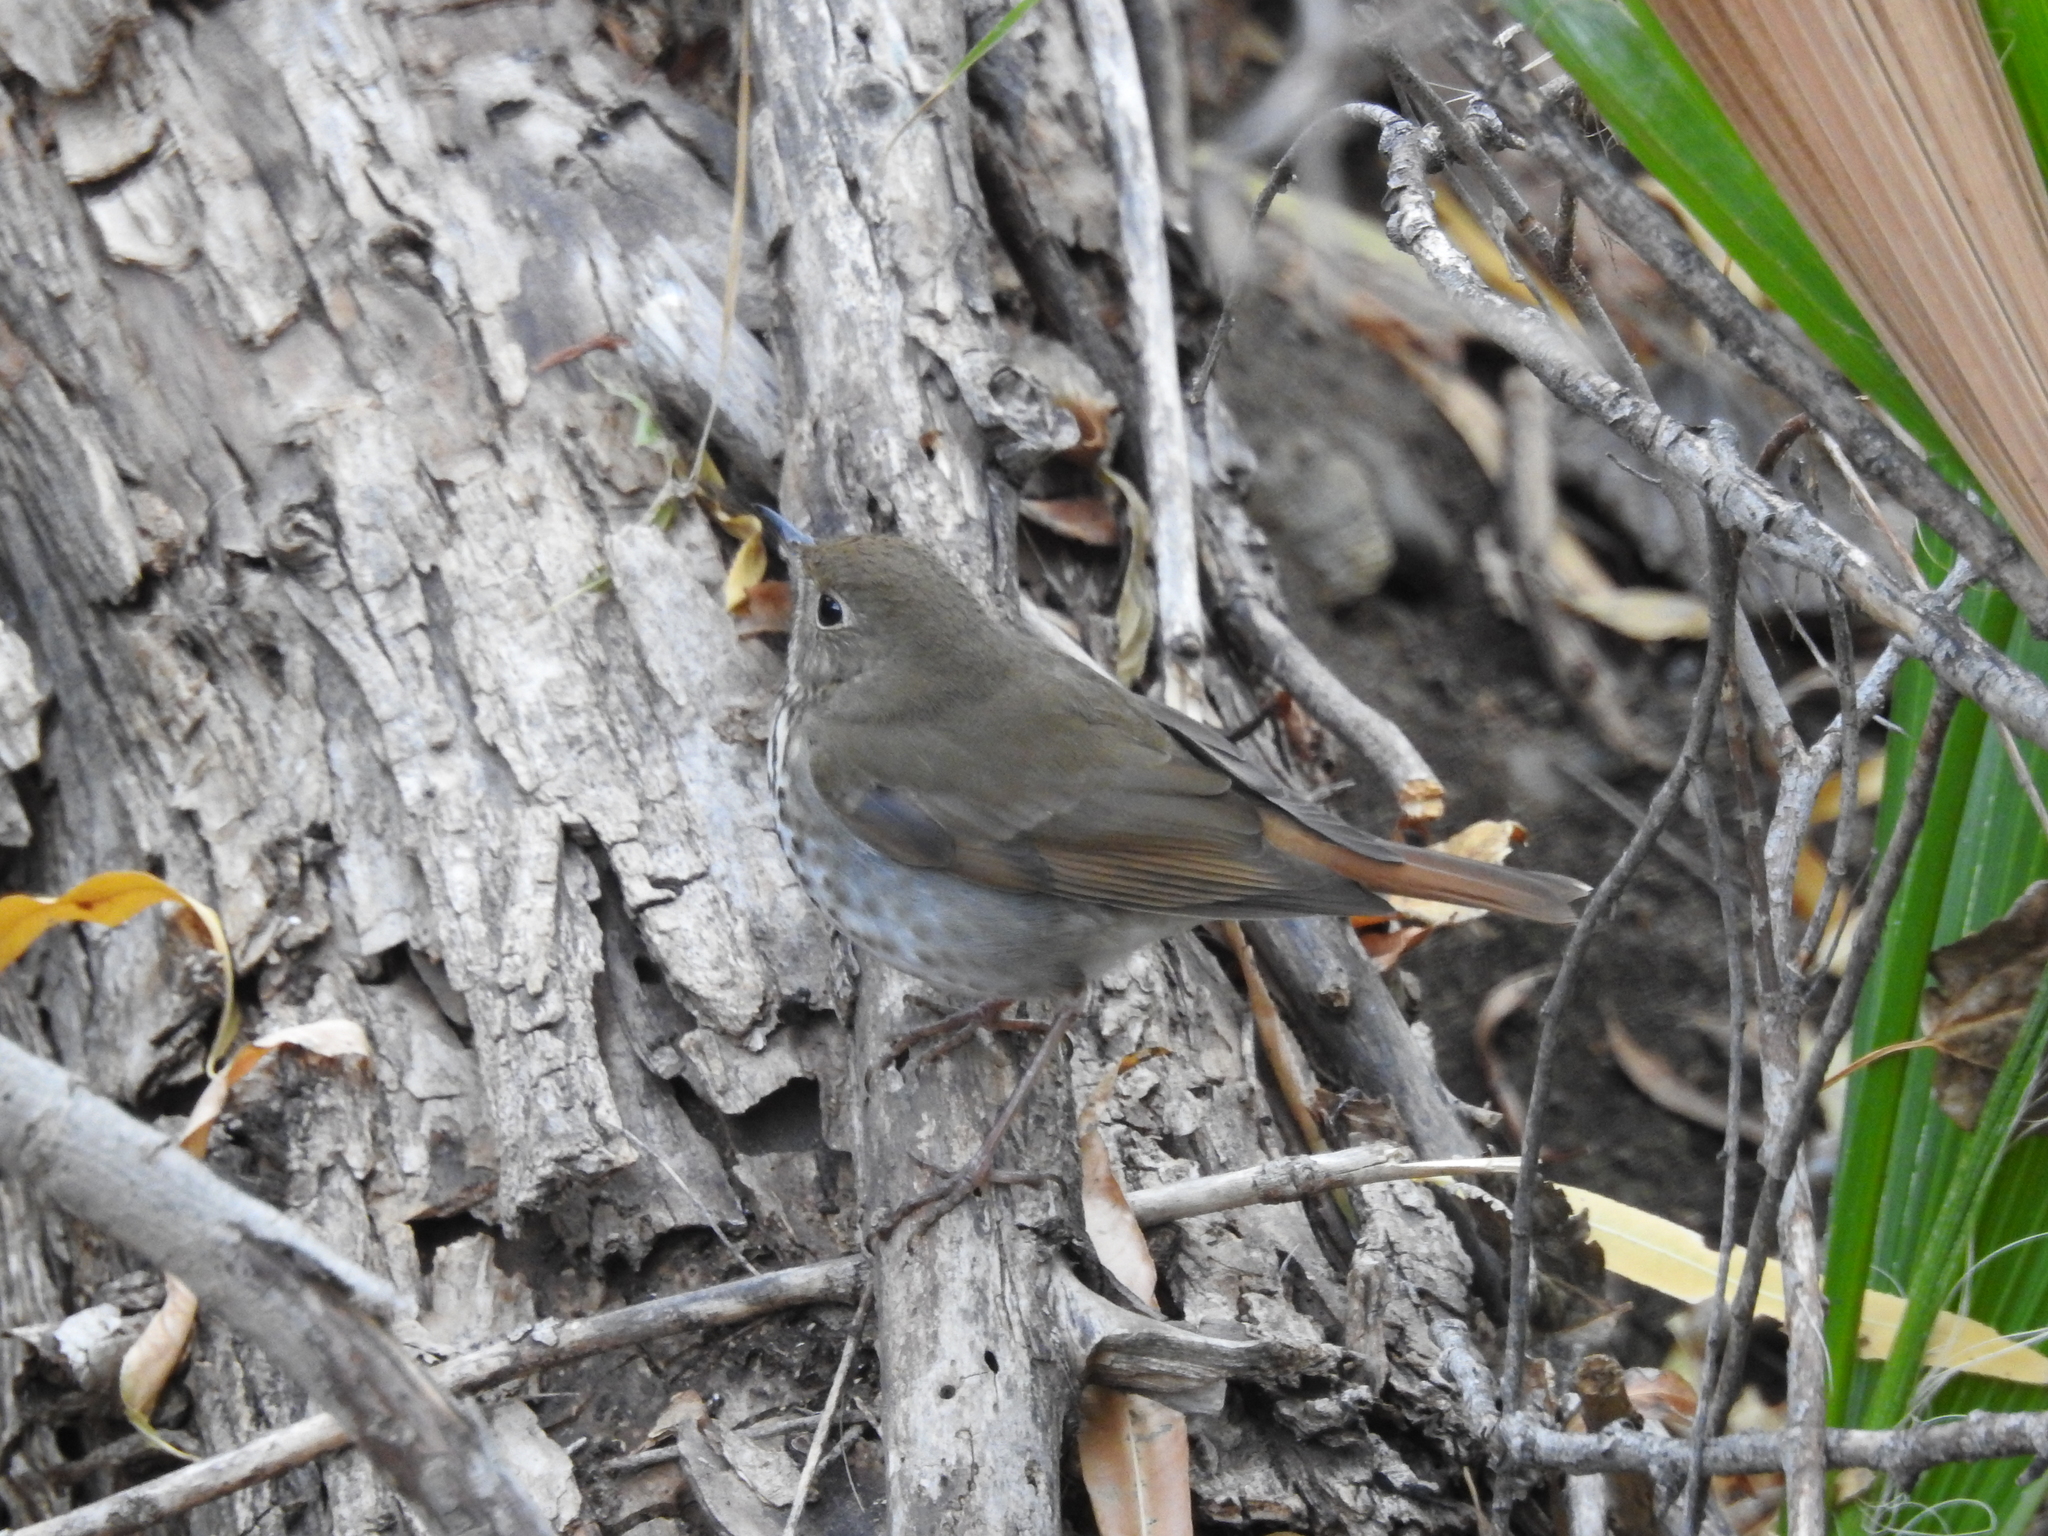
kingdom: Animalia
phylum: Chordata
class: Aves
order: Passeriformes
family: Turdidae
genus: Catharus
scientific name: Catharus guttatus
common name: Hermit thrush
